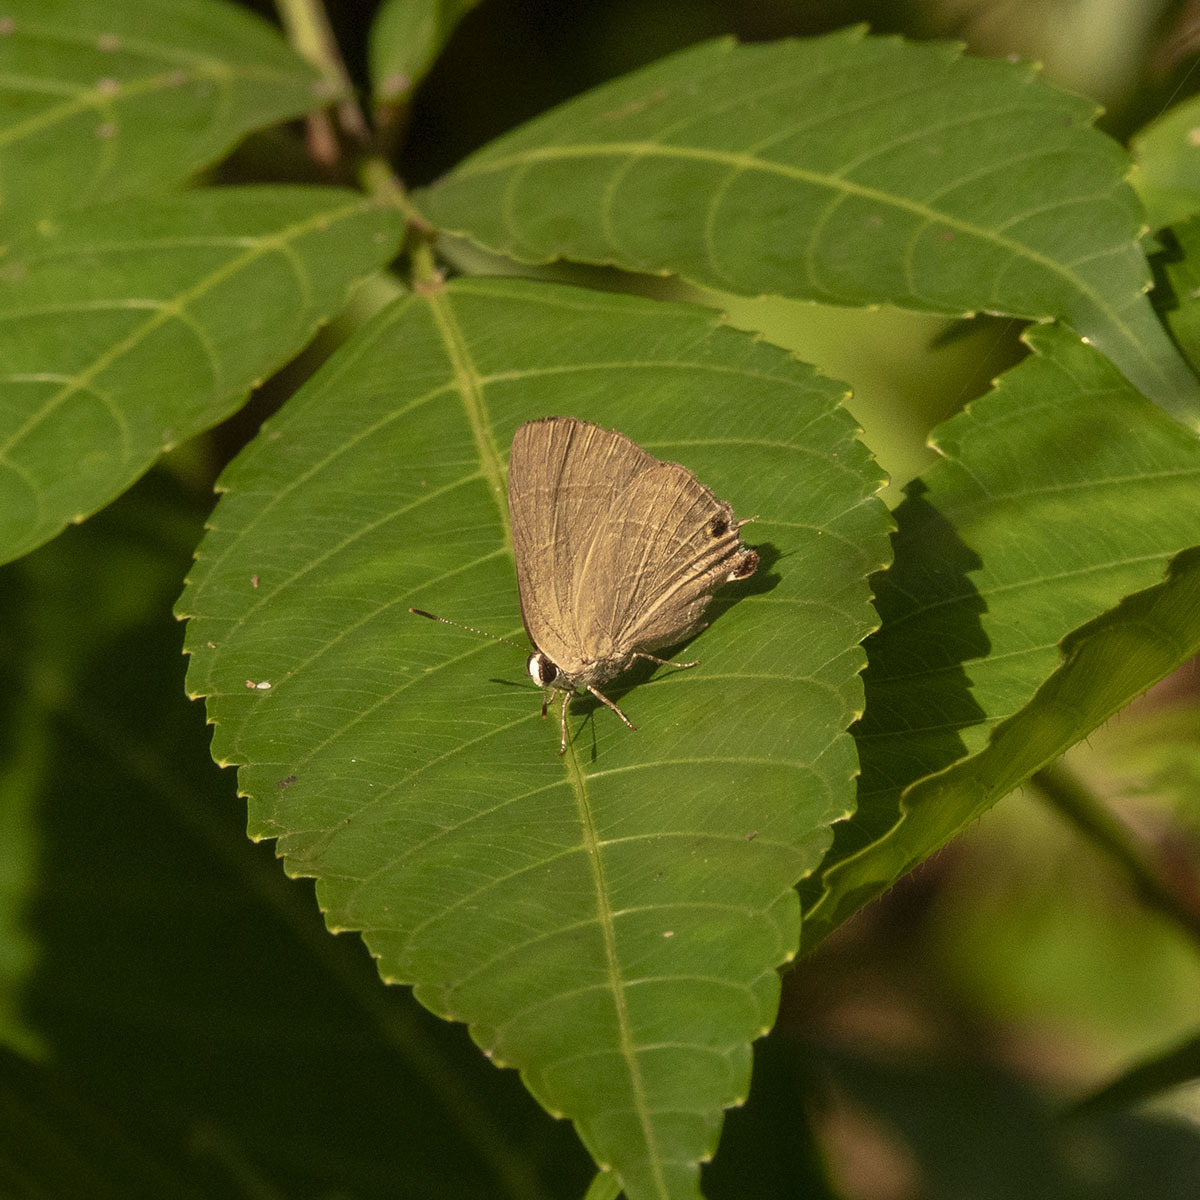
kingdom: Animalia
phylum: Arthropoda
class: Insecta
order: Lepidoptera
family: Lycaenidae
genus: Rapala
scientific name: Rapala manea
